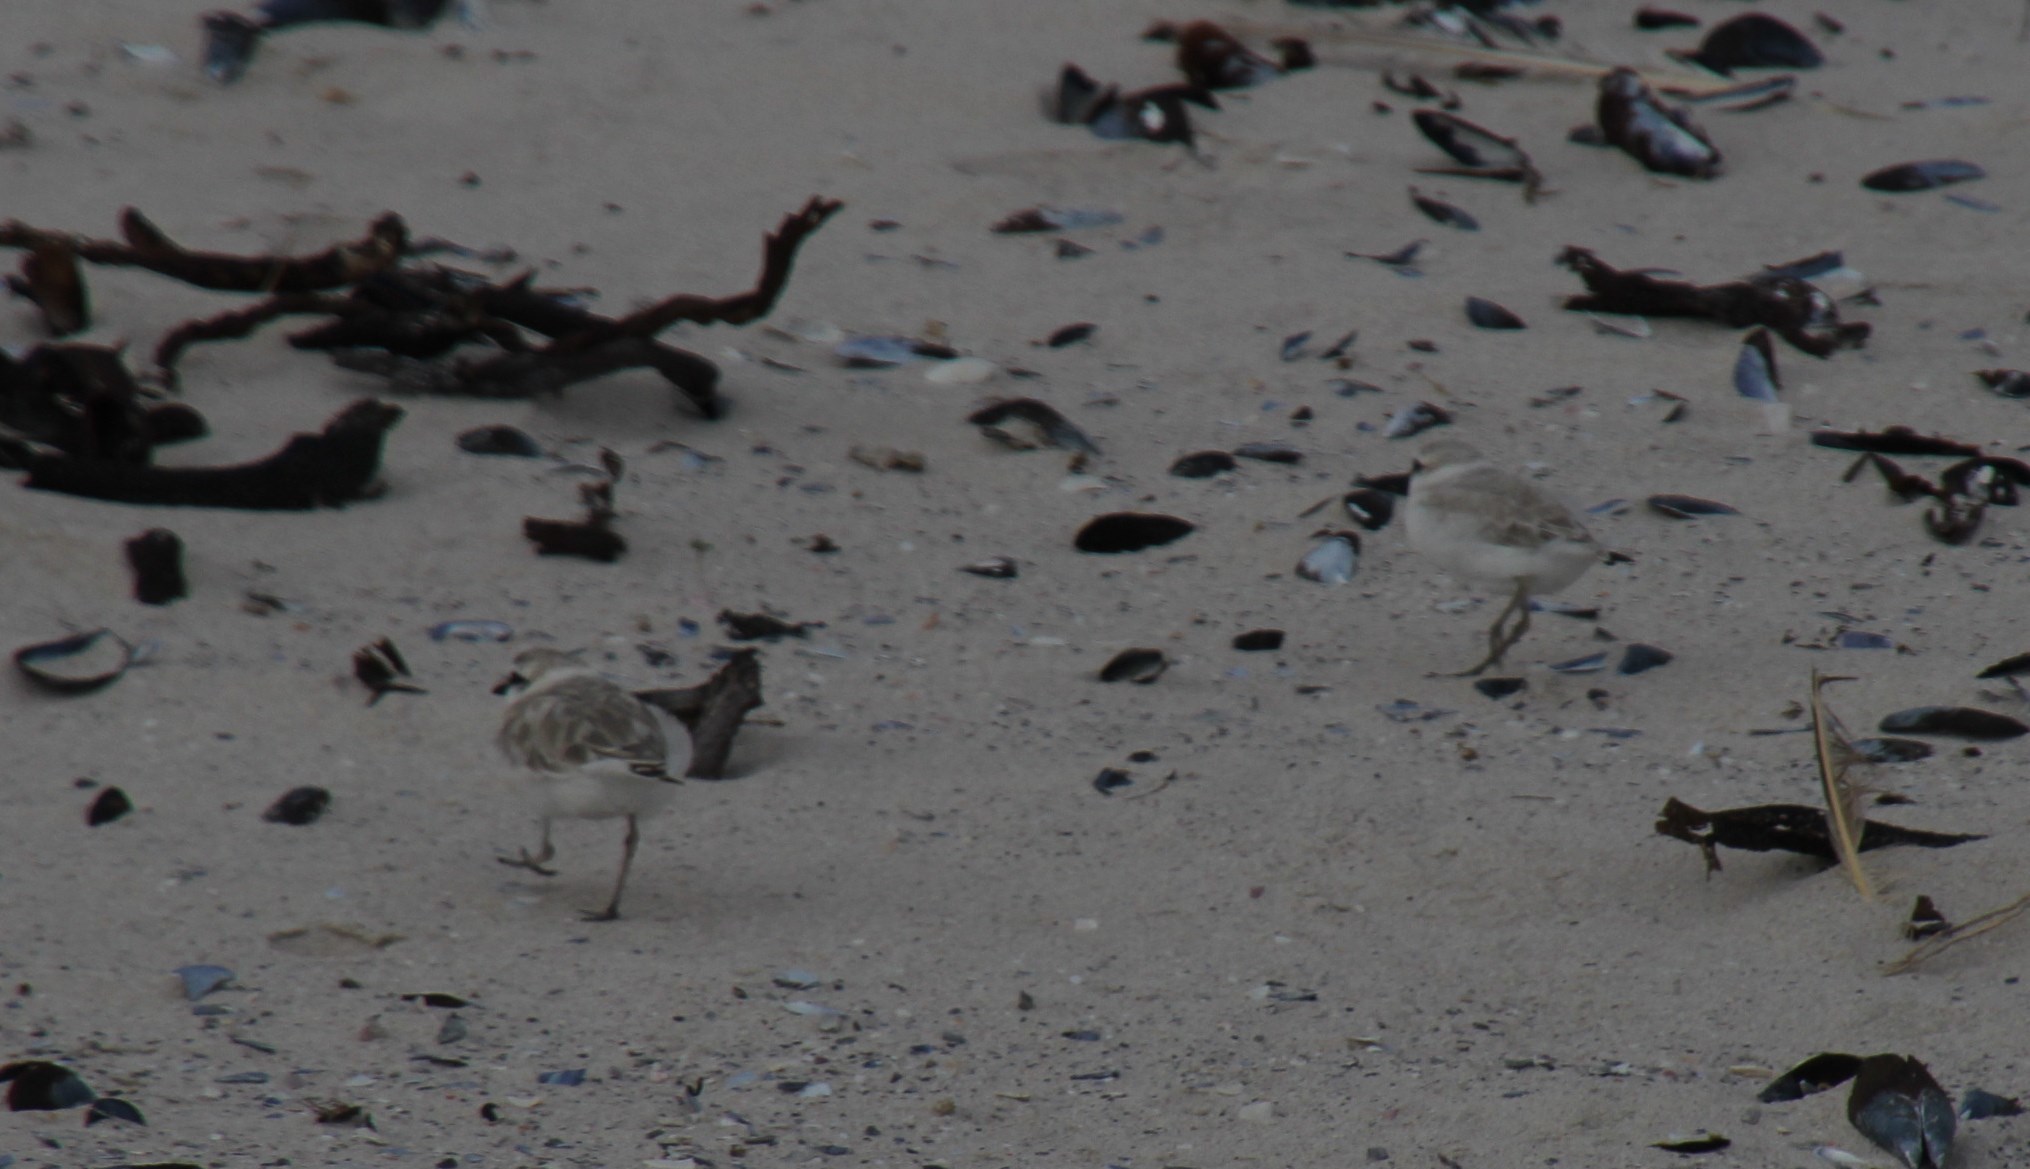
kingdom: Animalia
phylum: Chordata
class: Aves
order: Charadriiformes
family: Charadriidae
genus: Anarhynchus
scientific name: Anarhynchus
